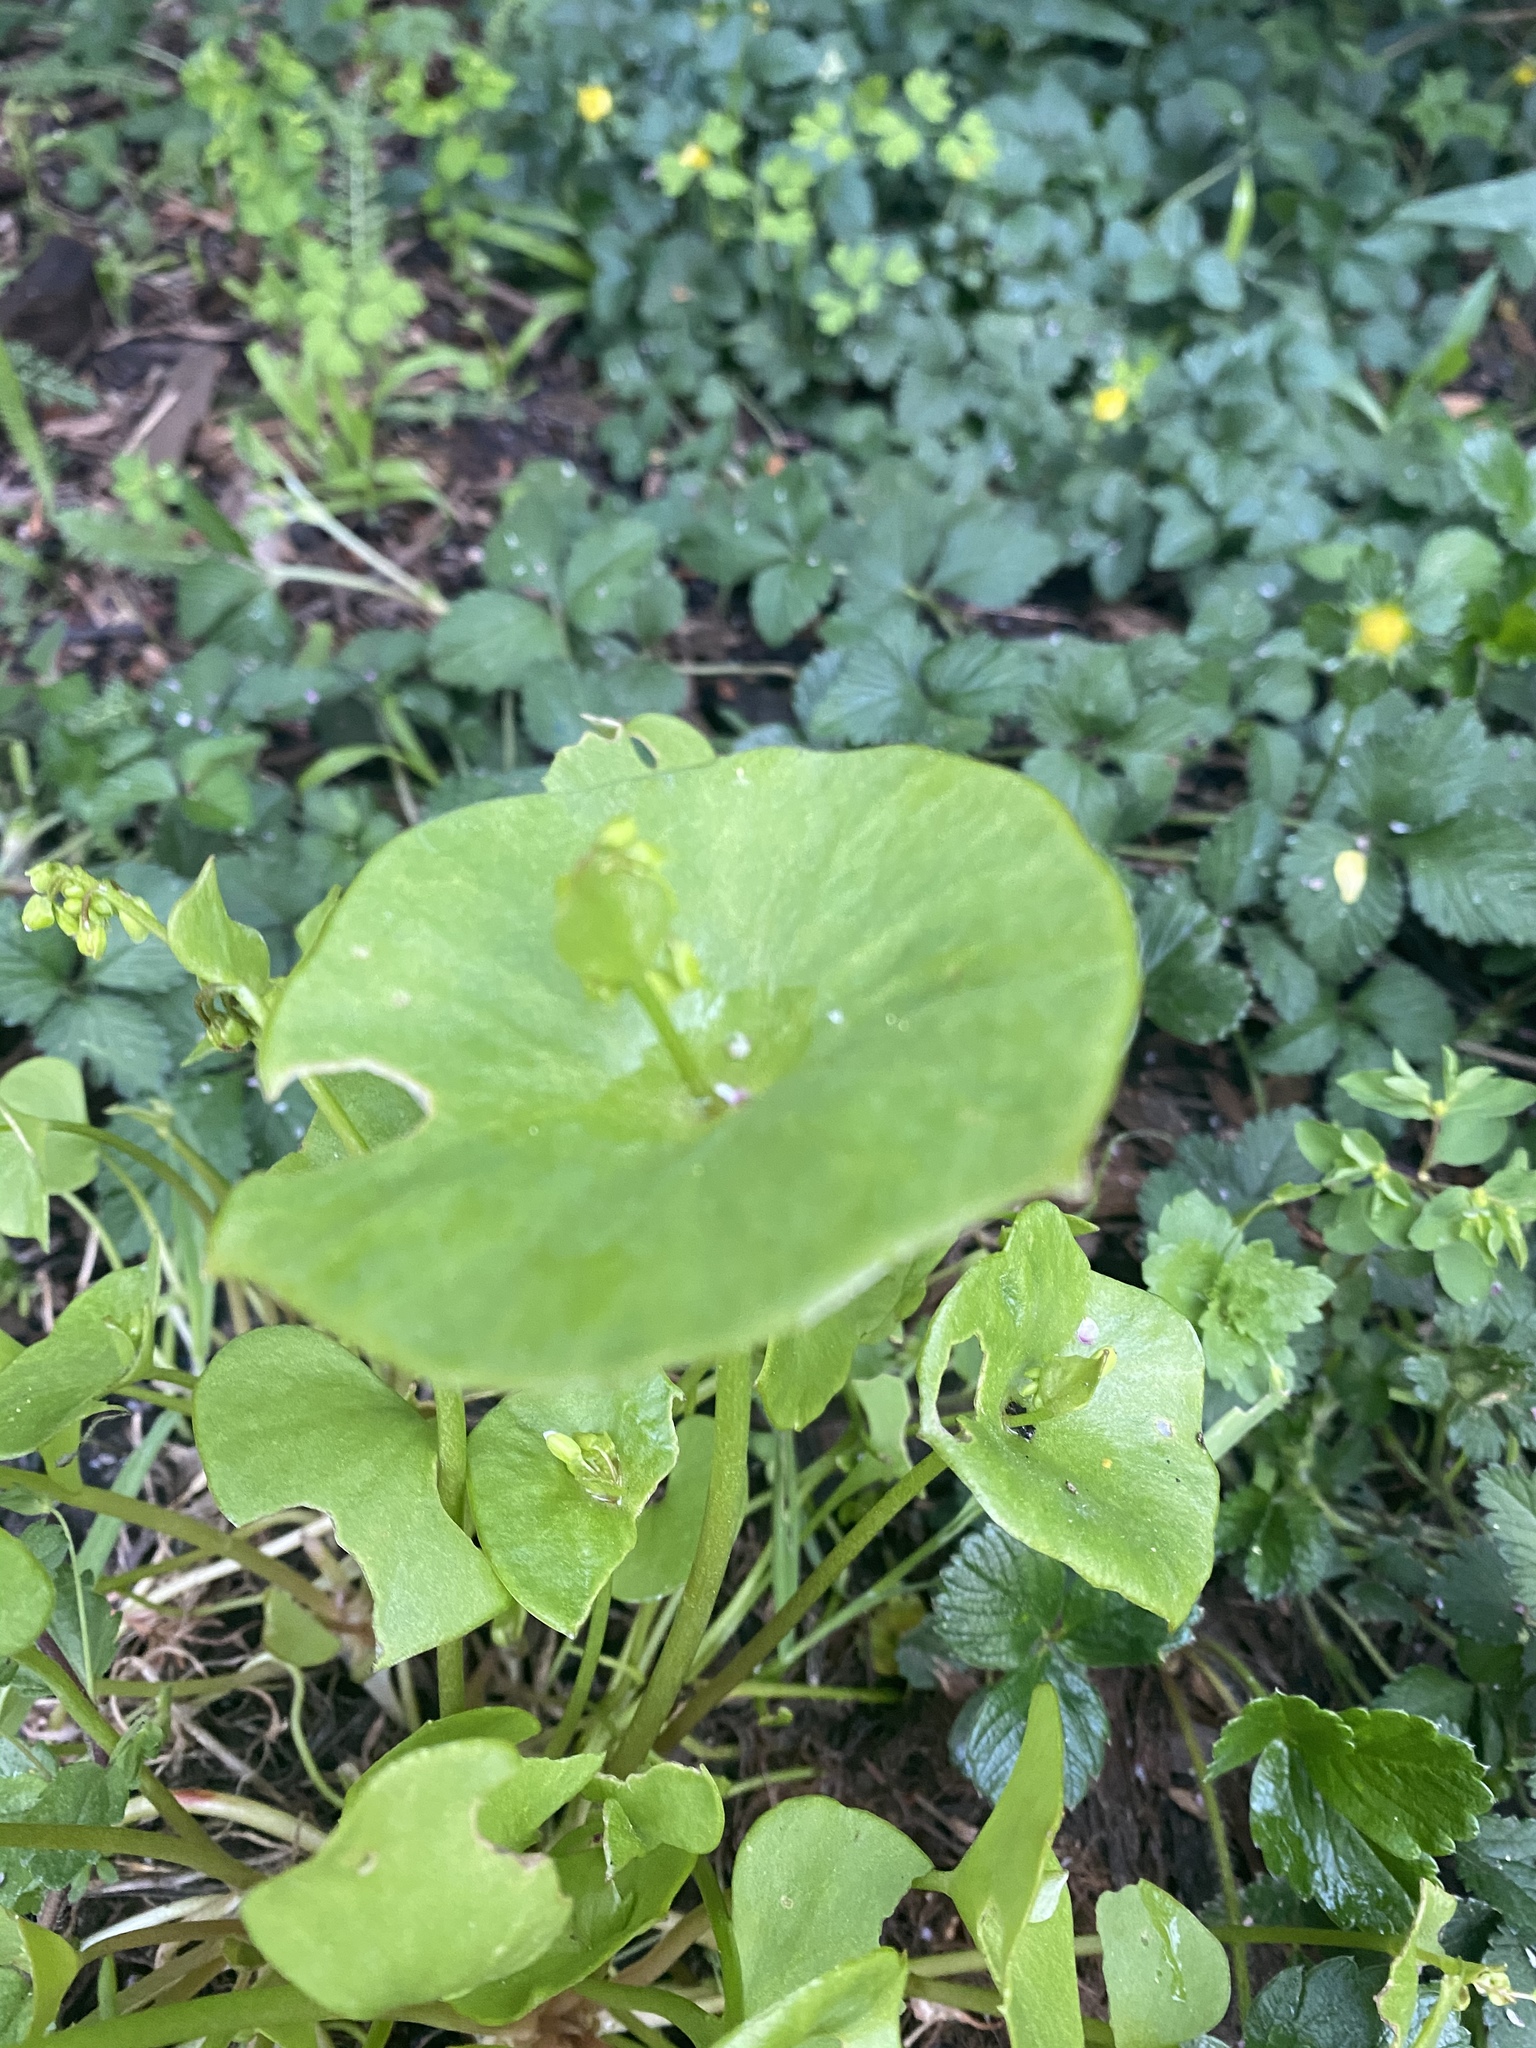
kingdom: Plantae
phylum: Tracheophyta
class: Magnoliopsida
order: Caryophyllales
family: Montiaceae
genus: Claytonia
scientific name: Claytonia perfoliata
